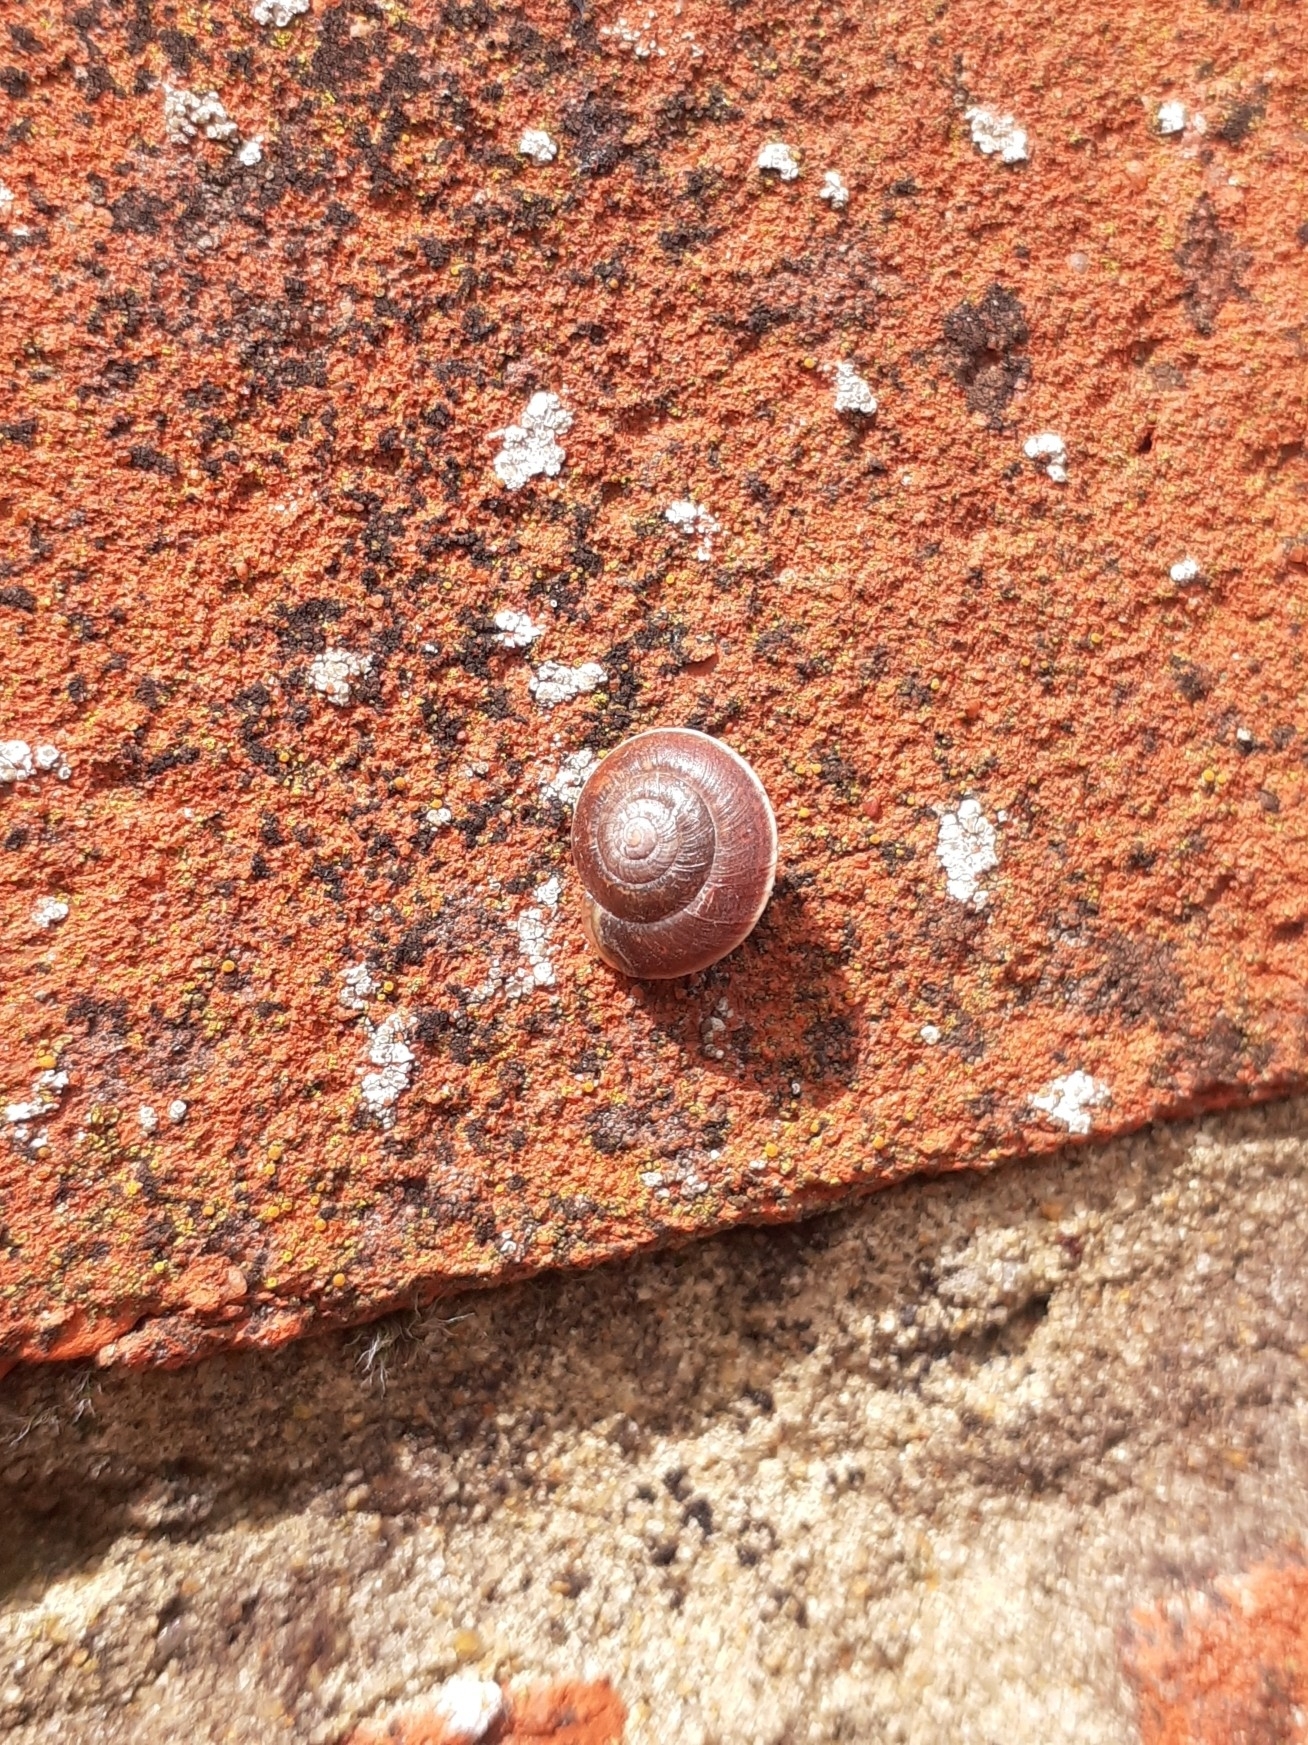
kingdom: Animalia
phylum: Mollusca
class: Gastropoda
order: Stylommatophora
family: Hygromiidae
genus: Hygromia
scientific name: Hygromia cinctella
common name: Girdled snail
